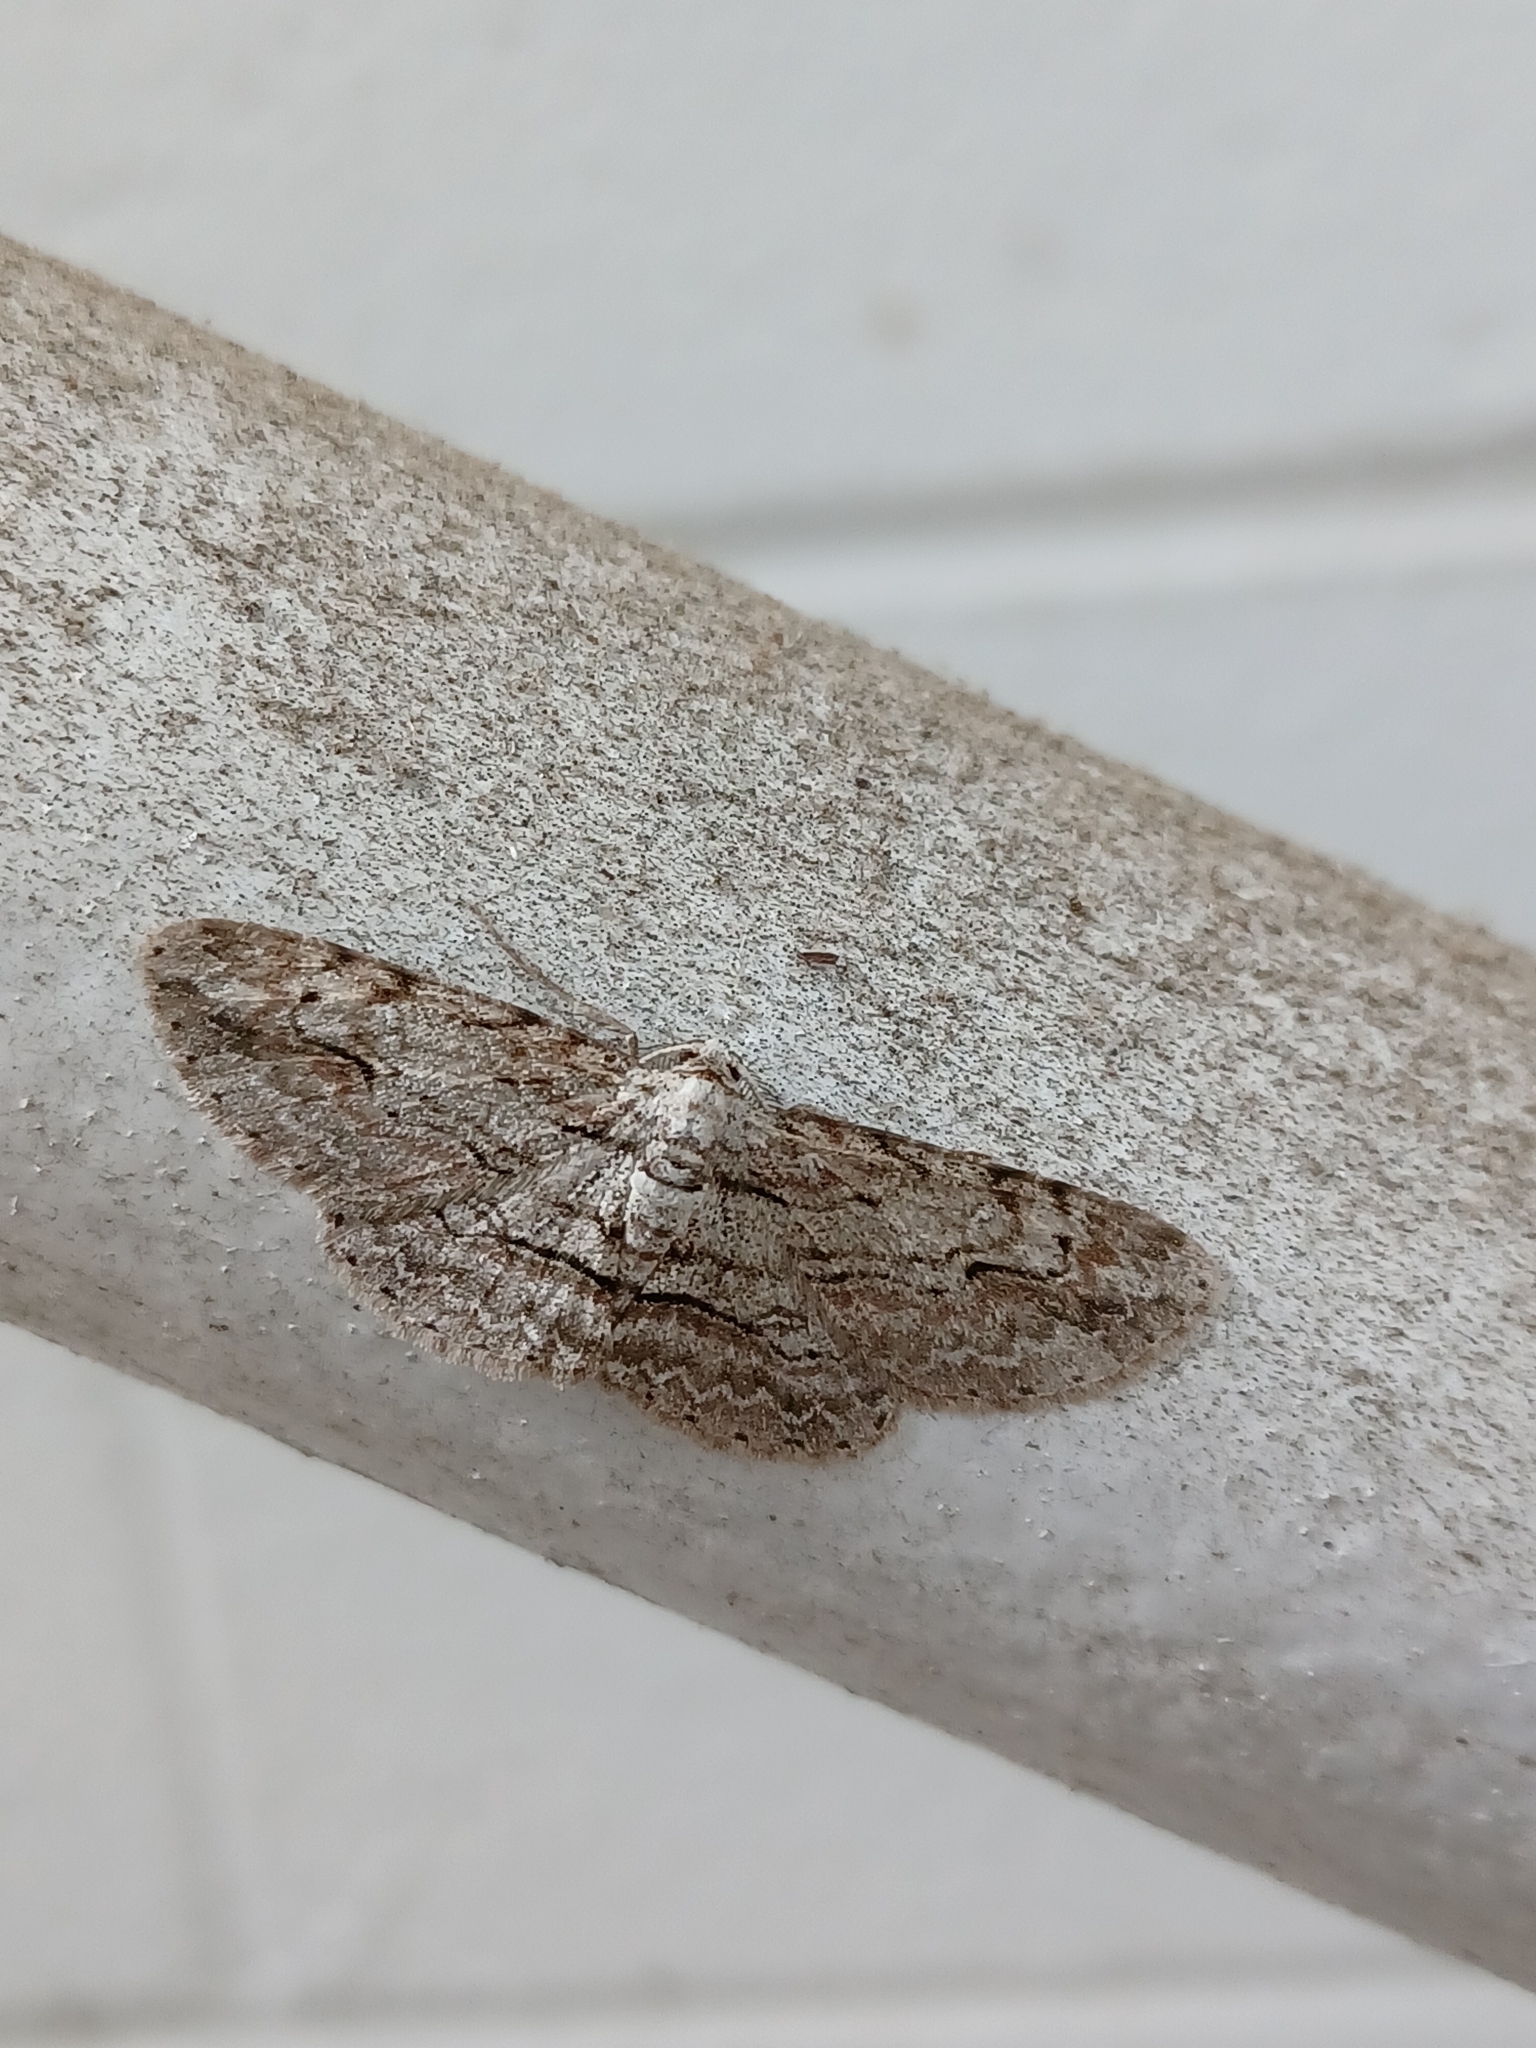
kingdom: Animalia
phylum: Arthropoda
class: Insecta
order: Lepidoptera
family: Geometridae
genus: Iridopsis
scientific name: Iridopsis defectaria
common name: Brown-shaded gray
